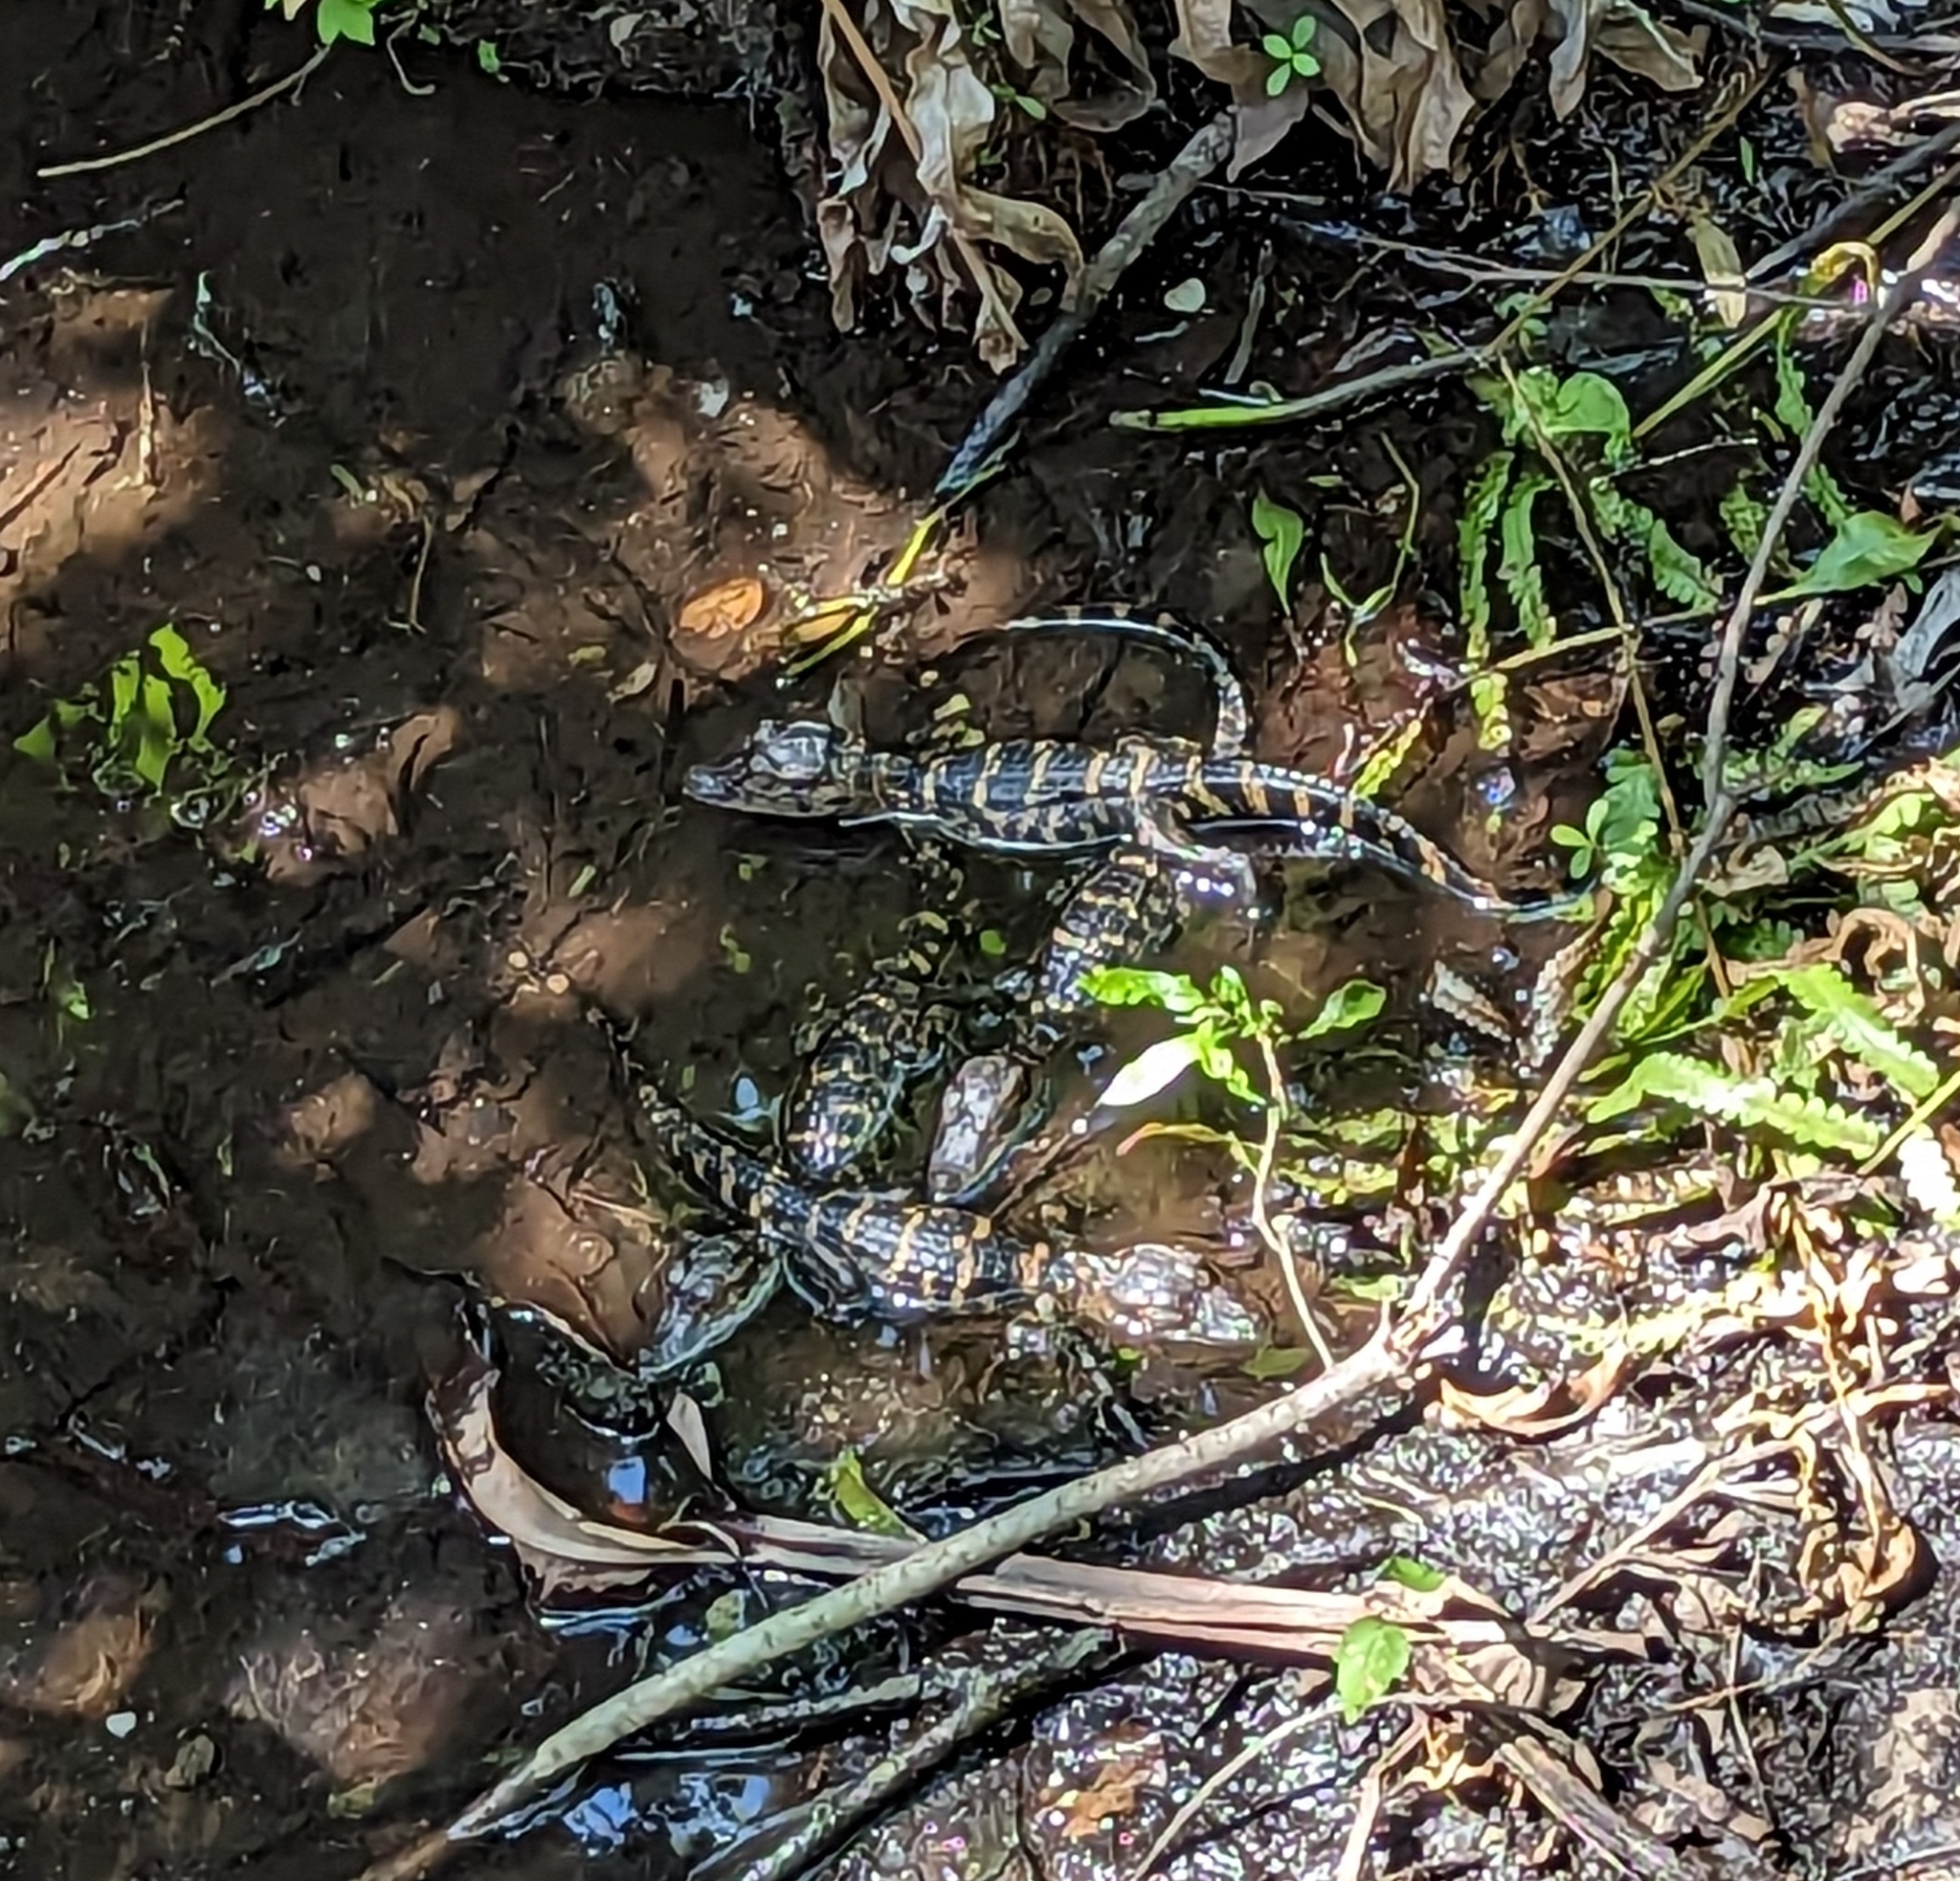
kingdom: Animalia
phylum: Chordata
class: Crocodylia
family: Alligatoridae
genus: Alligator
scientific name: Alligator mississippiensis
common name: American alligator
